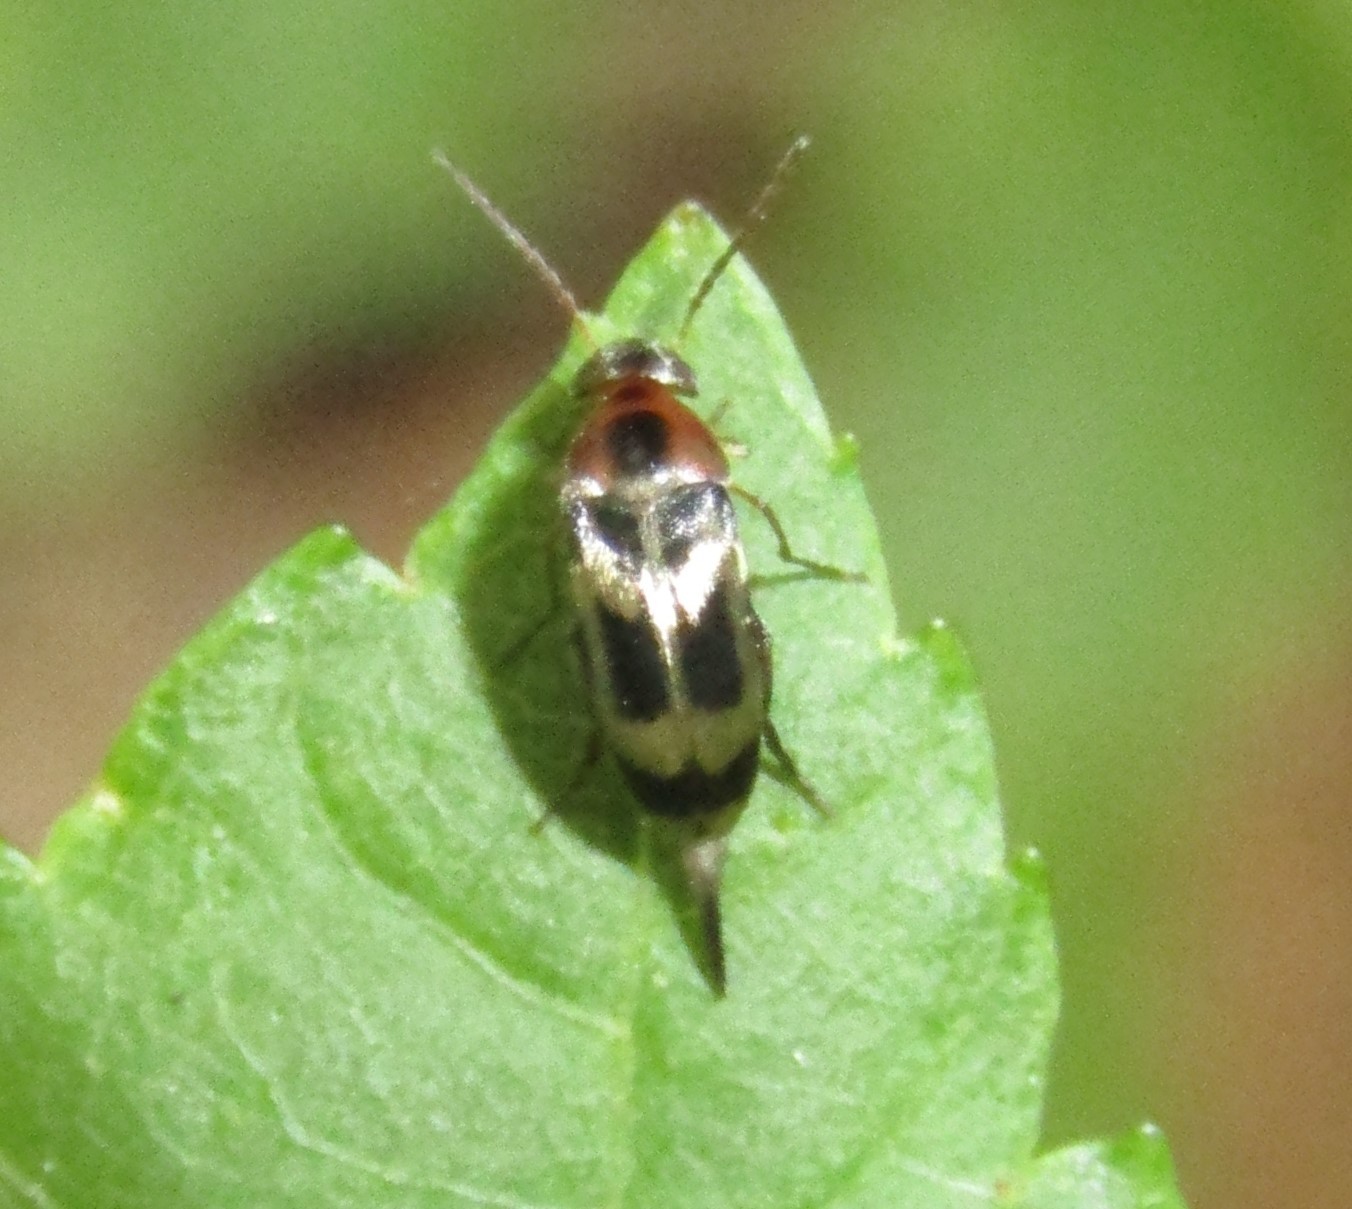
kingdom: Animalia
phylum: Arthropoda
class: Insecta
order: Coleoptera
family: Mordellidae
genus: Falsomordellistena
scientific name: Falsomordellistena hebraica
